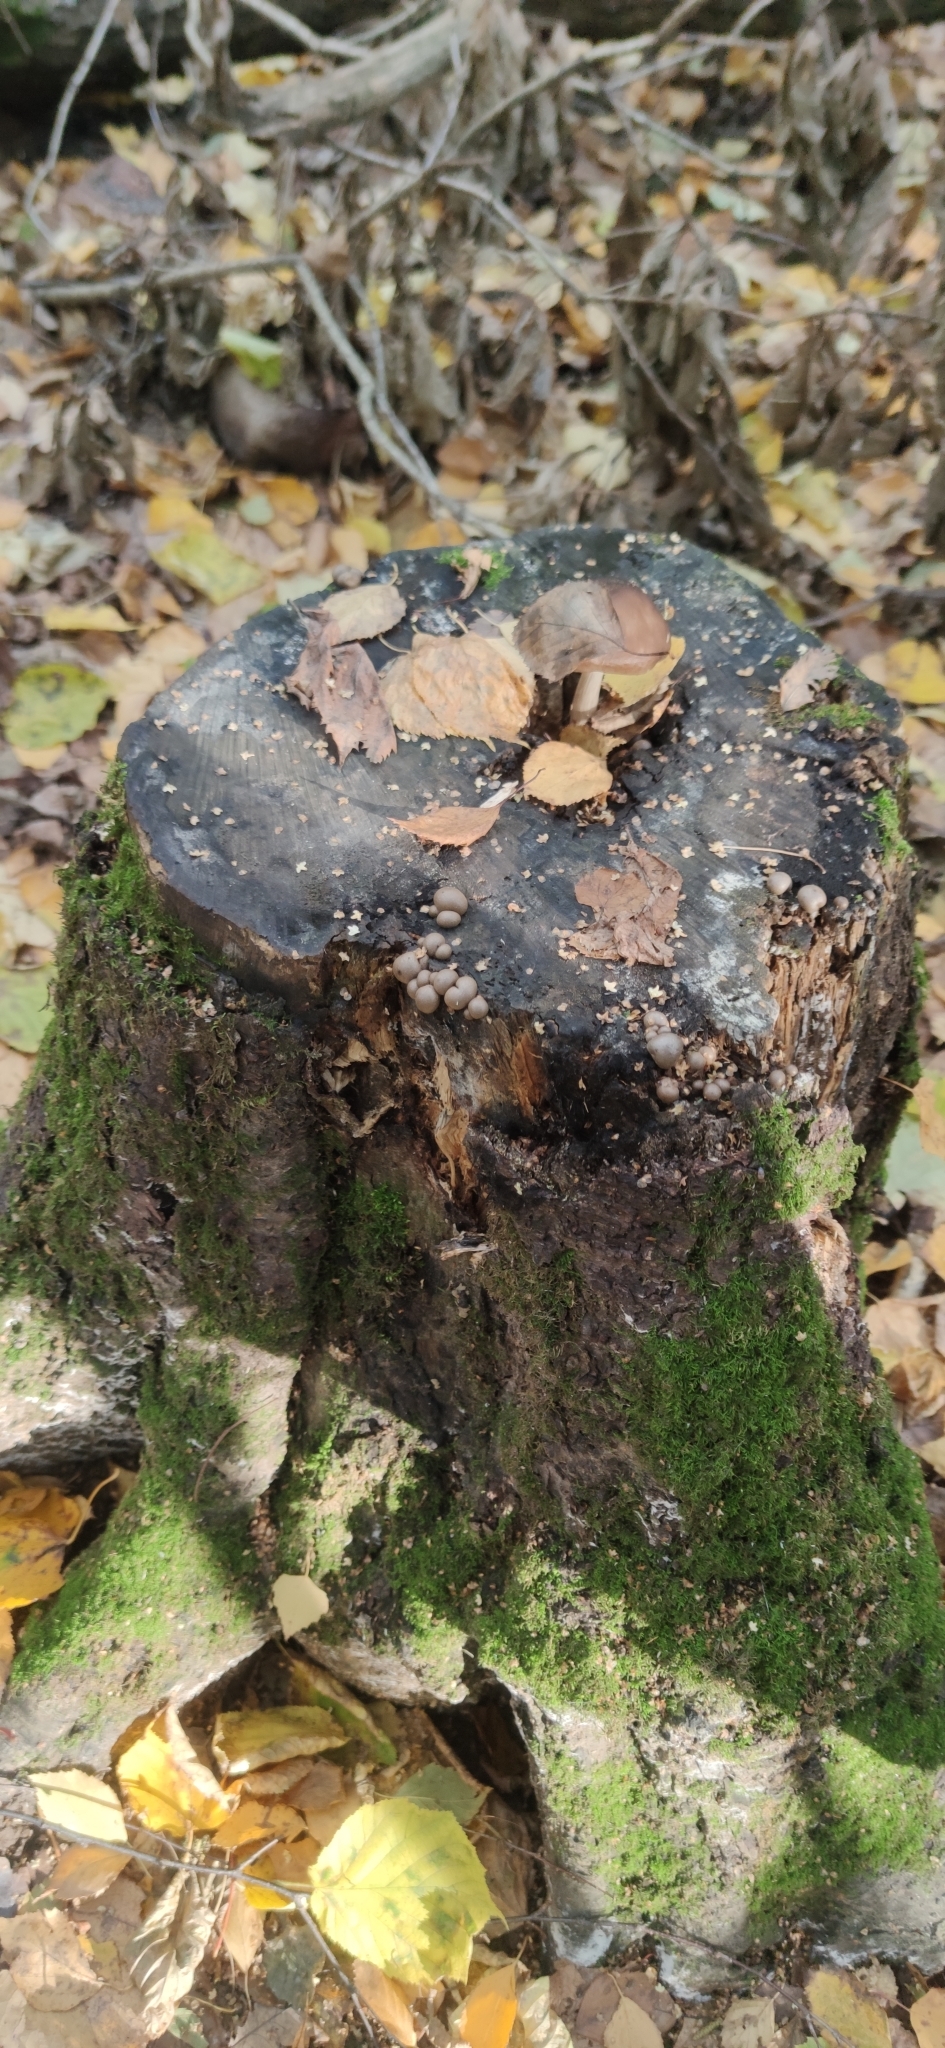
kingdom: Protozoa
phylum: Mycetozoa
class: Myxomycetes
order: Cribrariales
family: Tubiferaceae
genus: Lycogala
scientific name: Lycogala epidendrum
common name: Wolf's milk
